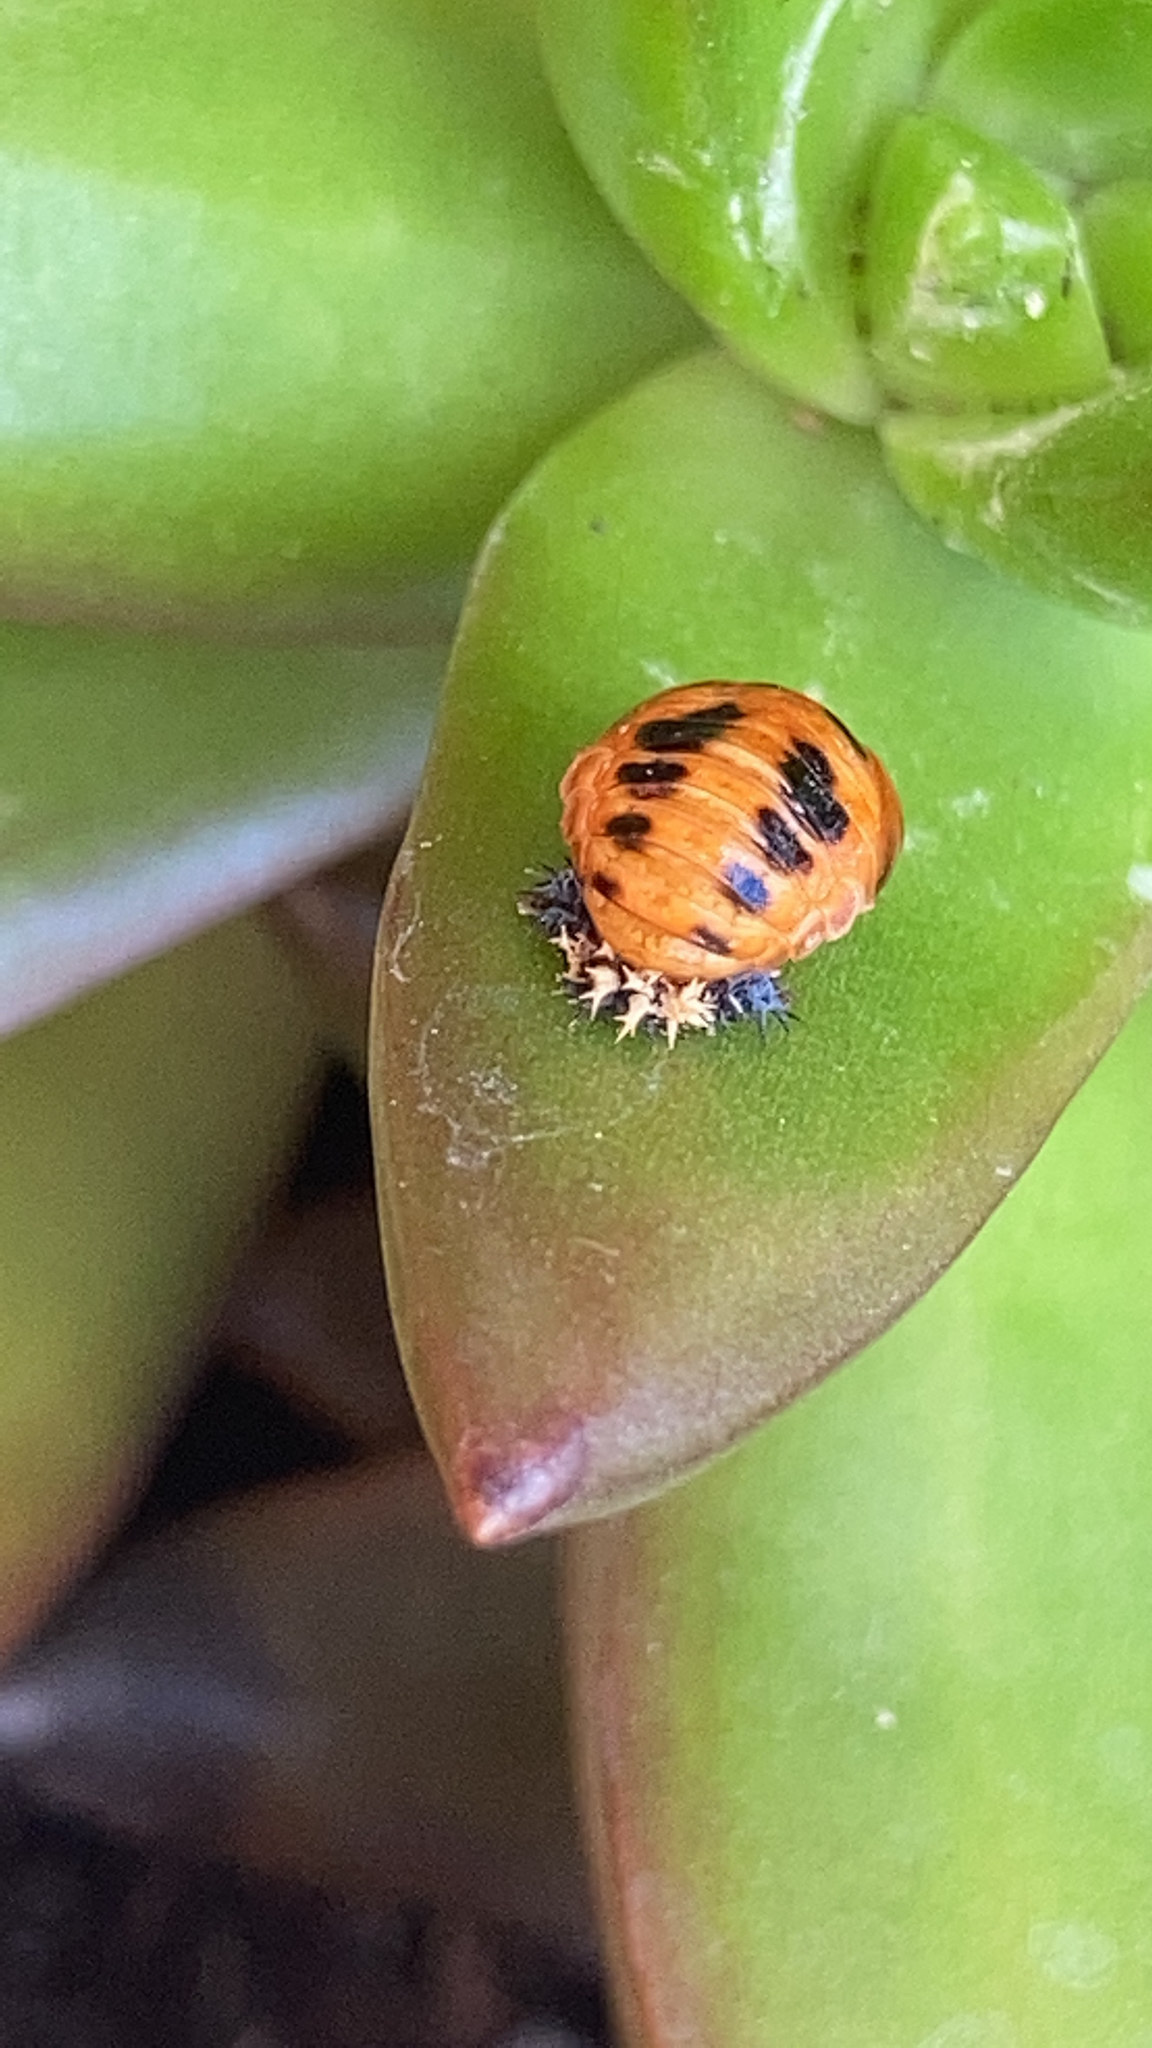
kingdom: Animalia
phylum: Arthropoda
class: Insecta
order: Coleoptera
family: Coccinellidae
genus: Harmonia
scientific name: Harmonia axyridis
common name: Harlequin ladybird
